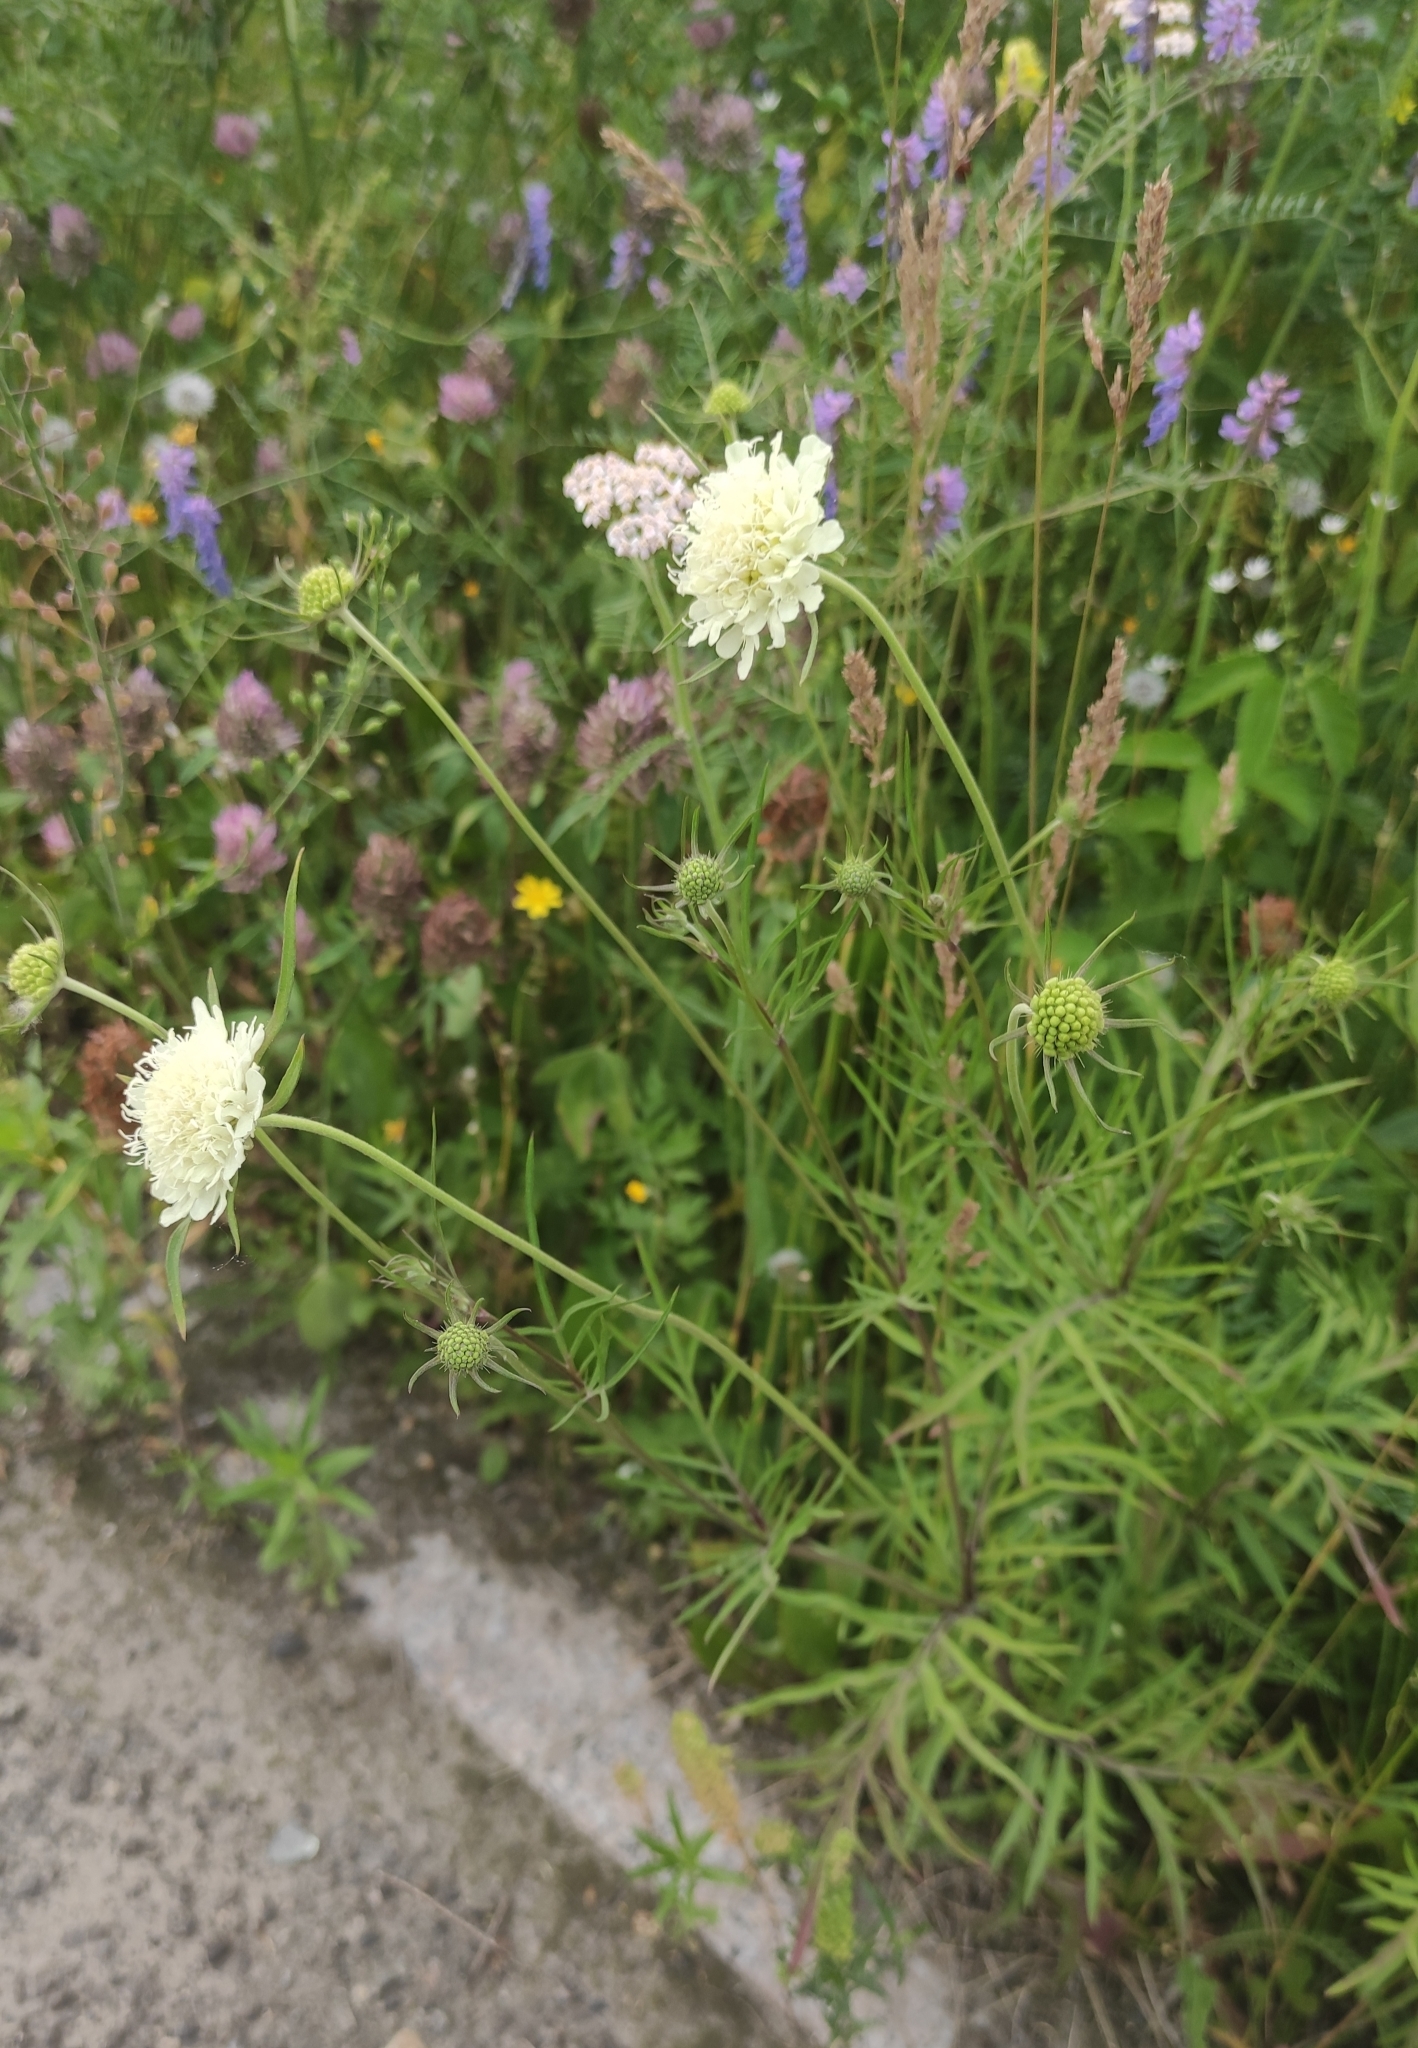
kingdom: Plantae
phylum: Tracheophyta
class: Magnoliopsida
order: Dipsacales
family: Caprifoliaceae
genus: Scabiosa
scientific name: Scabiosa ochroleuca
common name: Cream pincushions
